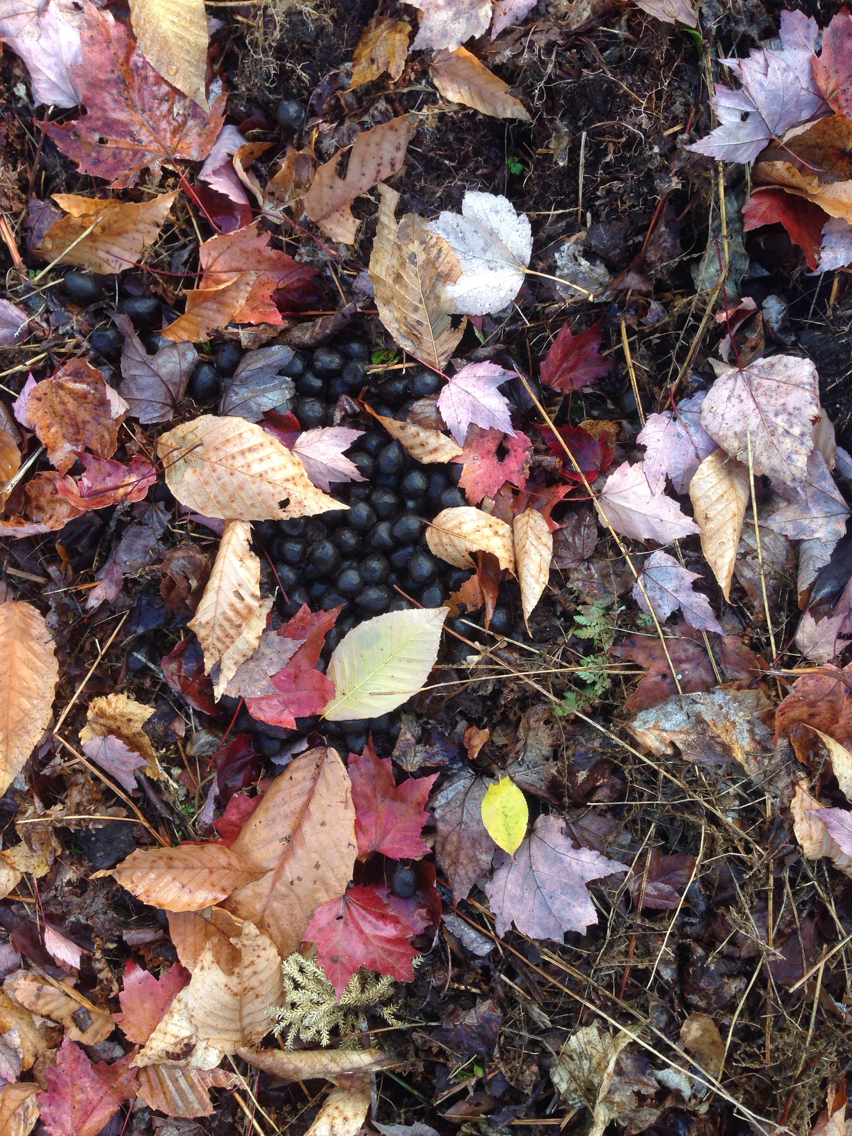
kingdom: Animalia
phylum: Chordata
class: Mammalia
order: Artiodactyla
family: Cervidae
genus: Alces
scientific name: Alces alces
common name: Moose
